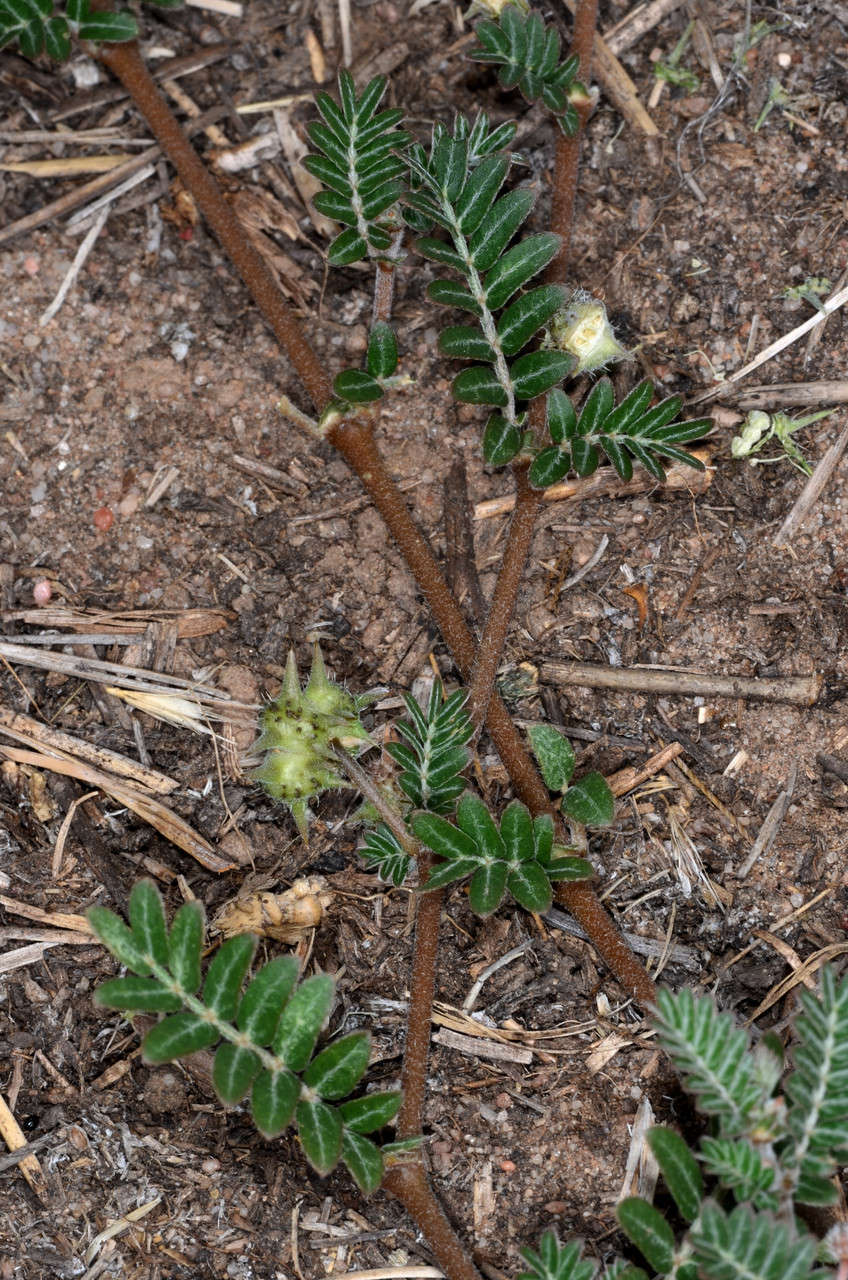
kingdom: Plantae
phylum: Tracheophyta
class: Magnoliopsida
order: Zygophyllales
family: Zygophyllaceae
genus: Tribulus
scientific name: Tribulus terrestris
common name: Puncturevine
